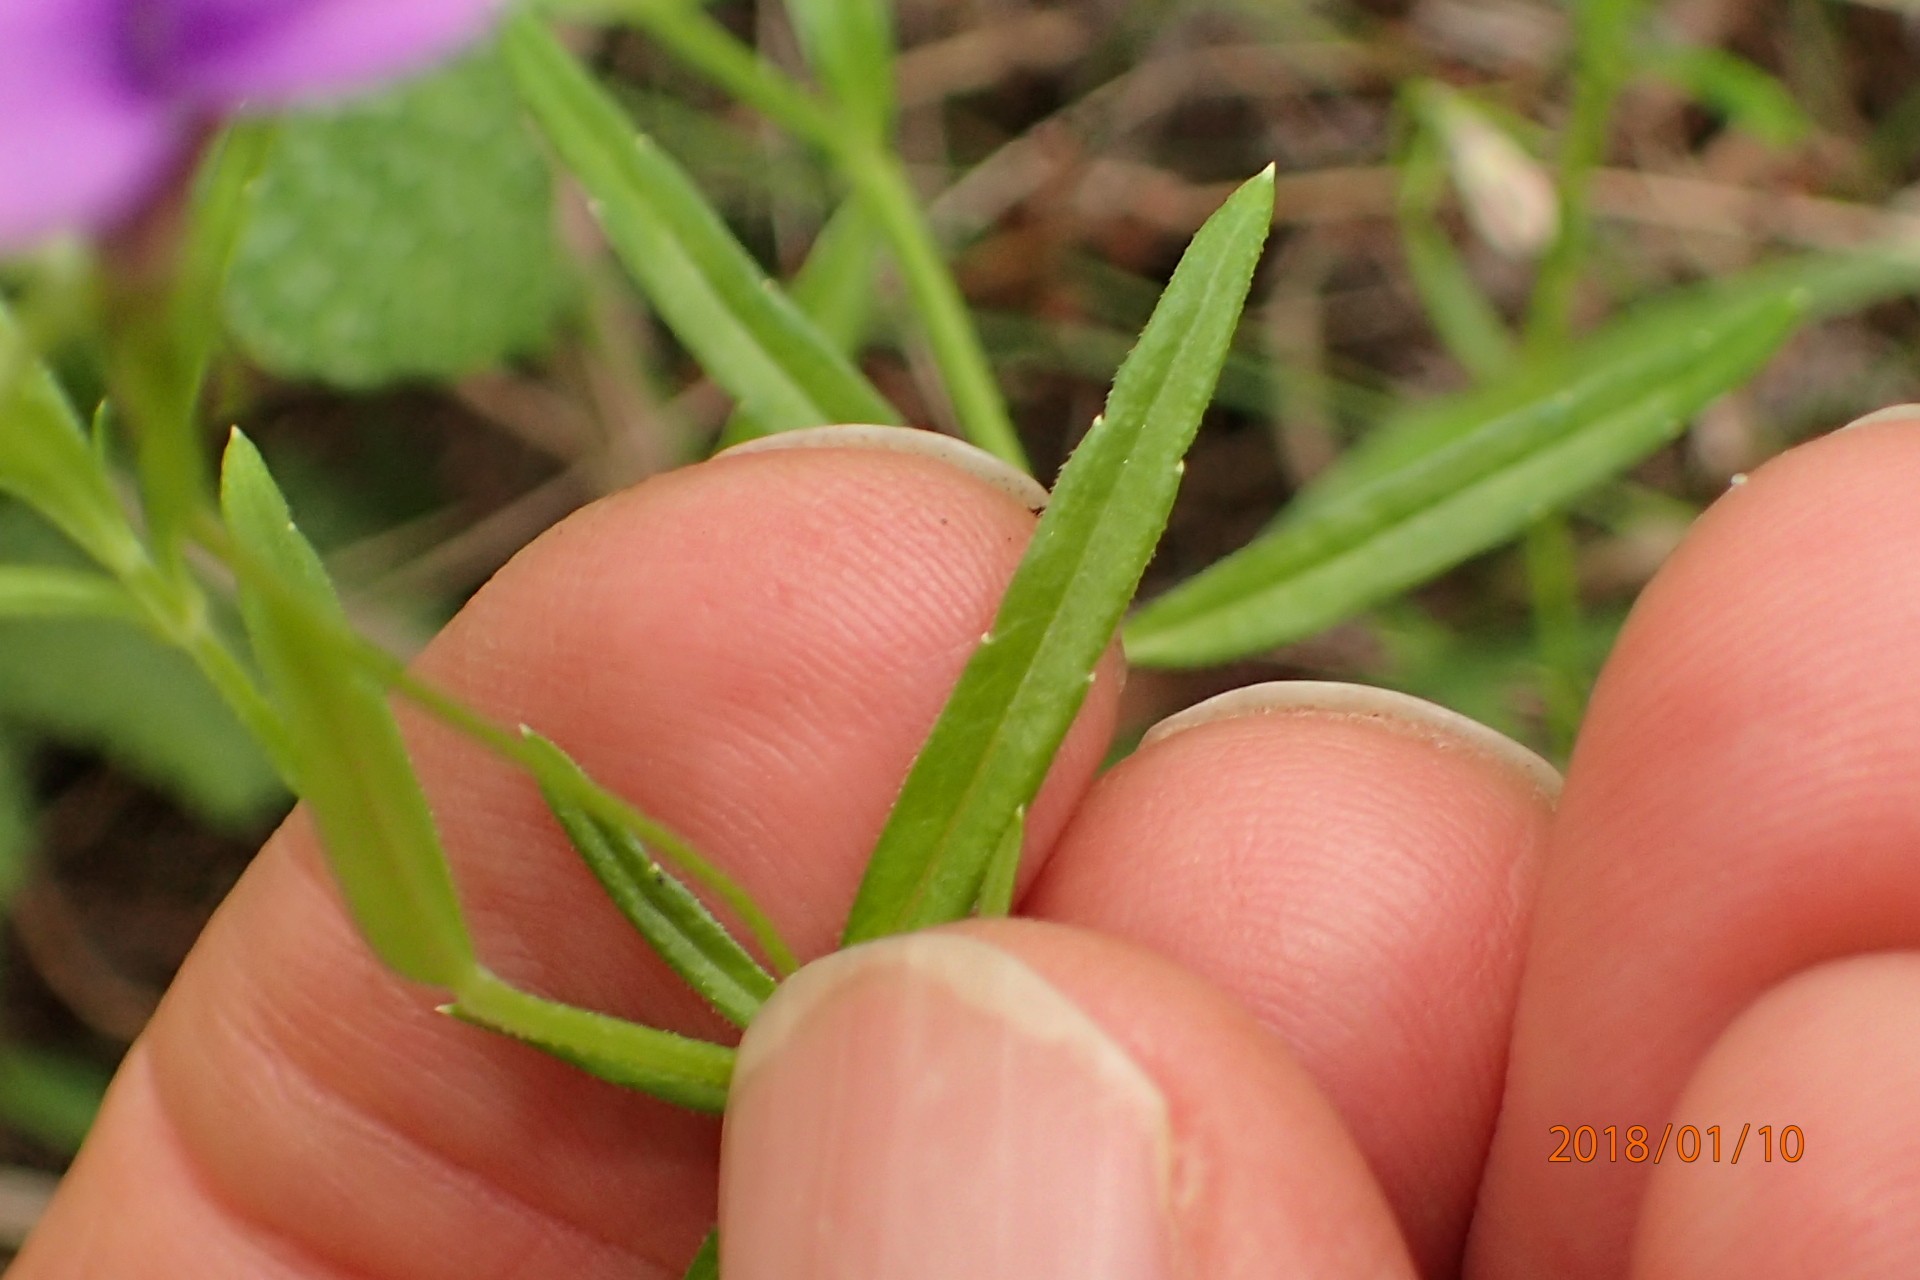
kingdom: Plantae
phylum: Tracheophyta
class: Magnoliopsida
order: Asterales
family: Campanulaceae
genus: Monopsis
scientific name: Monopsis stellarioides
